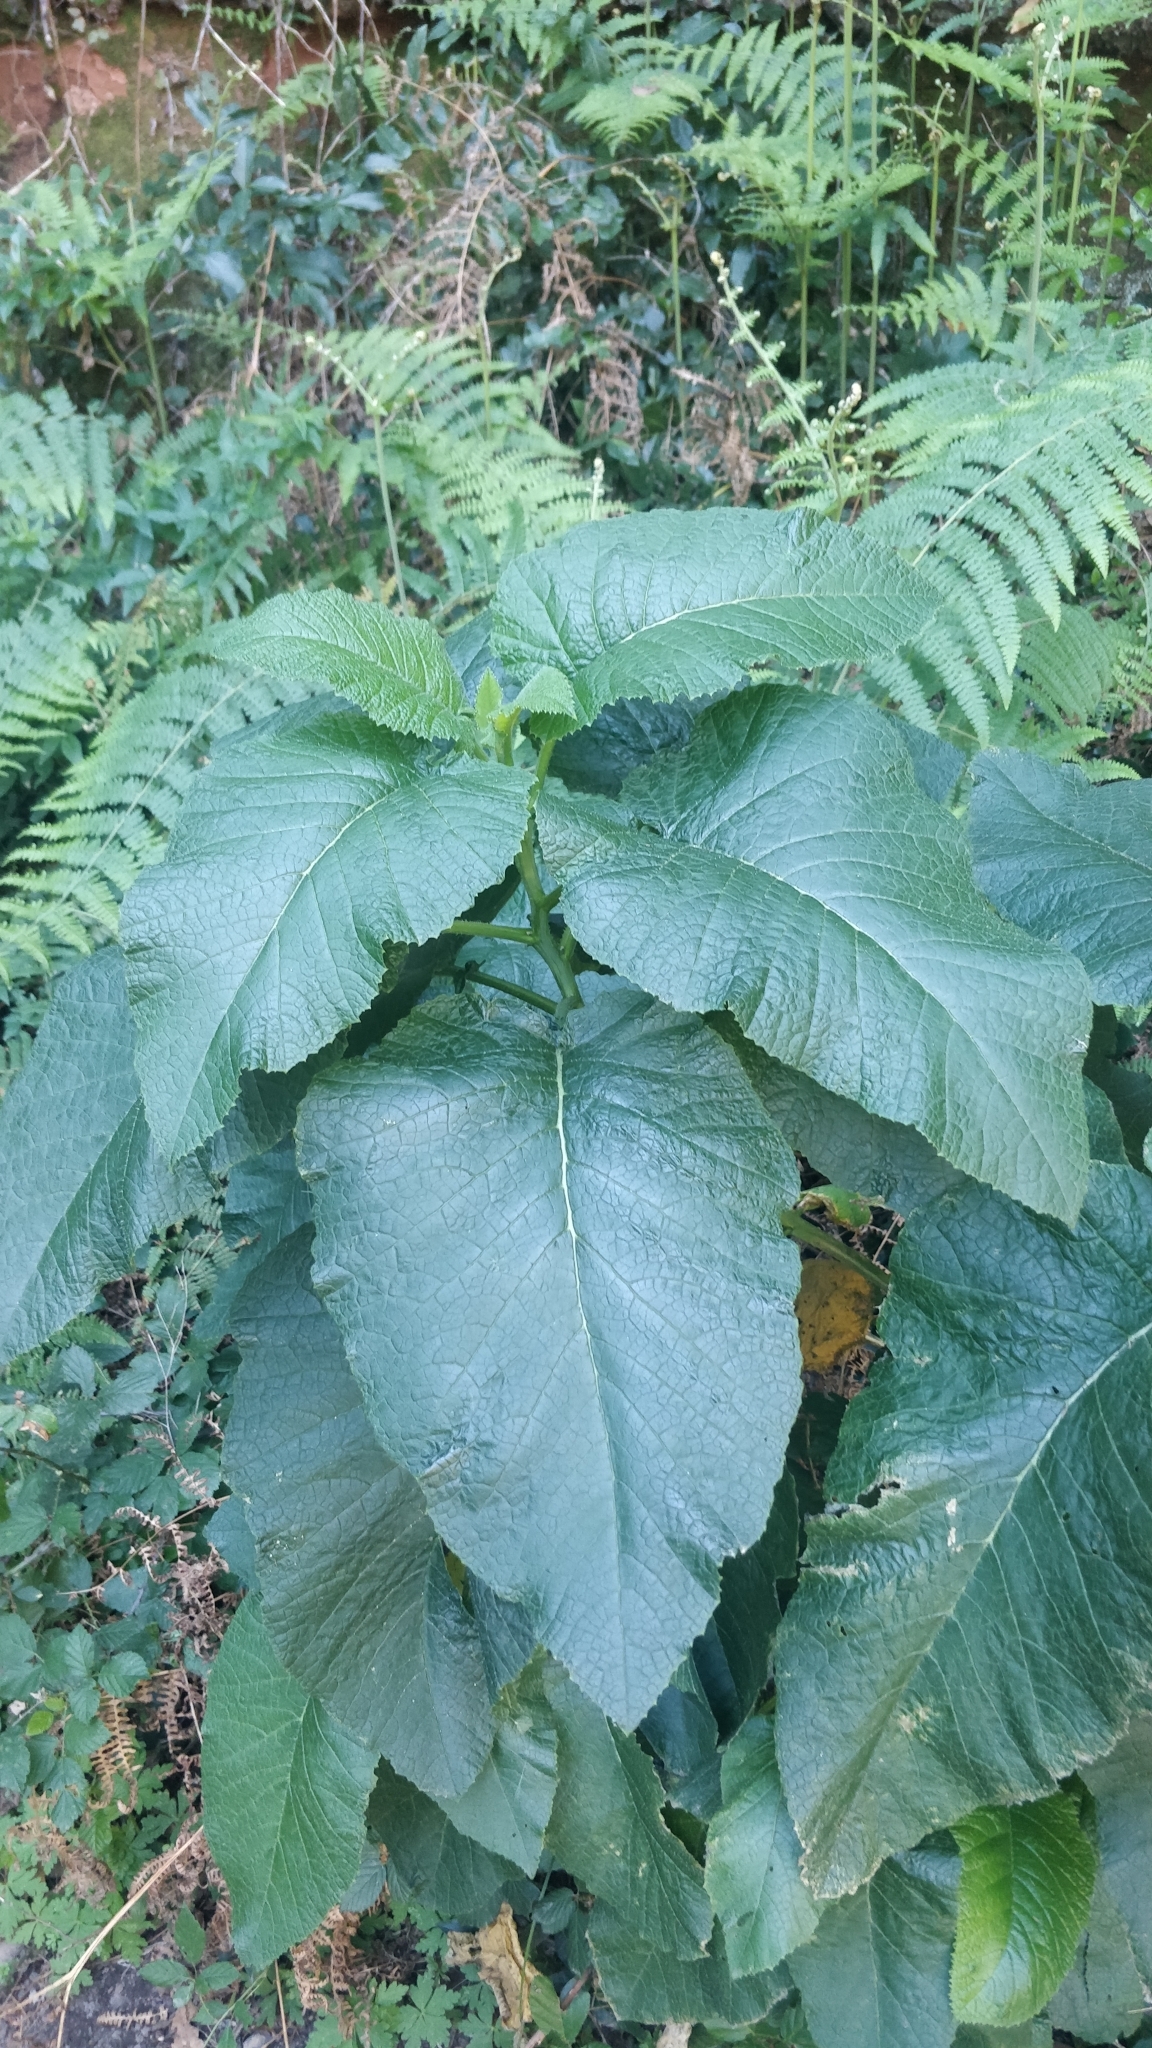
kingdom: Plantae
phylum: Tracheophyta
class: Magnoliopsida
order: Brassicales
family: Brassicaceae
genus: Crambe
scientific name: Crambe strigosa
